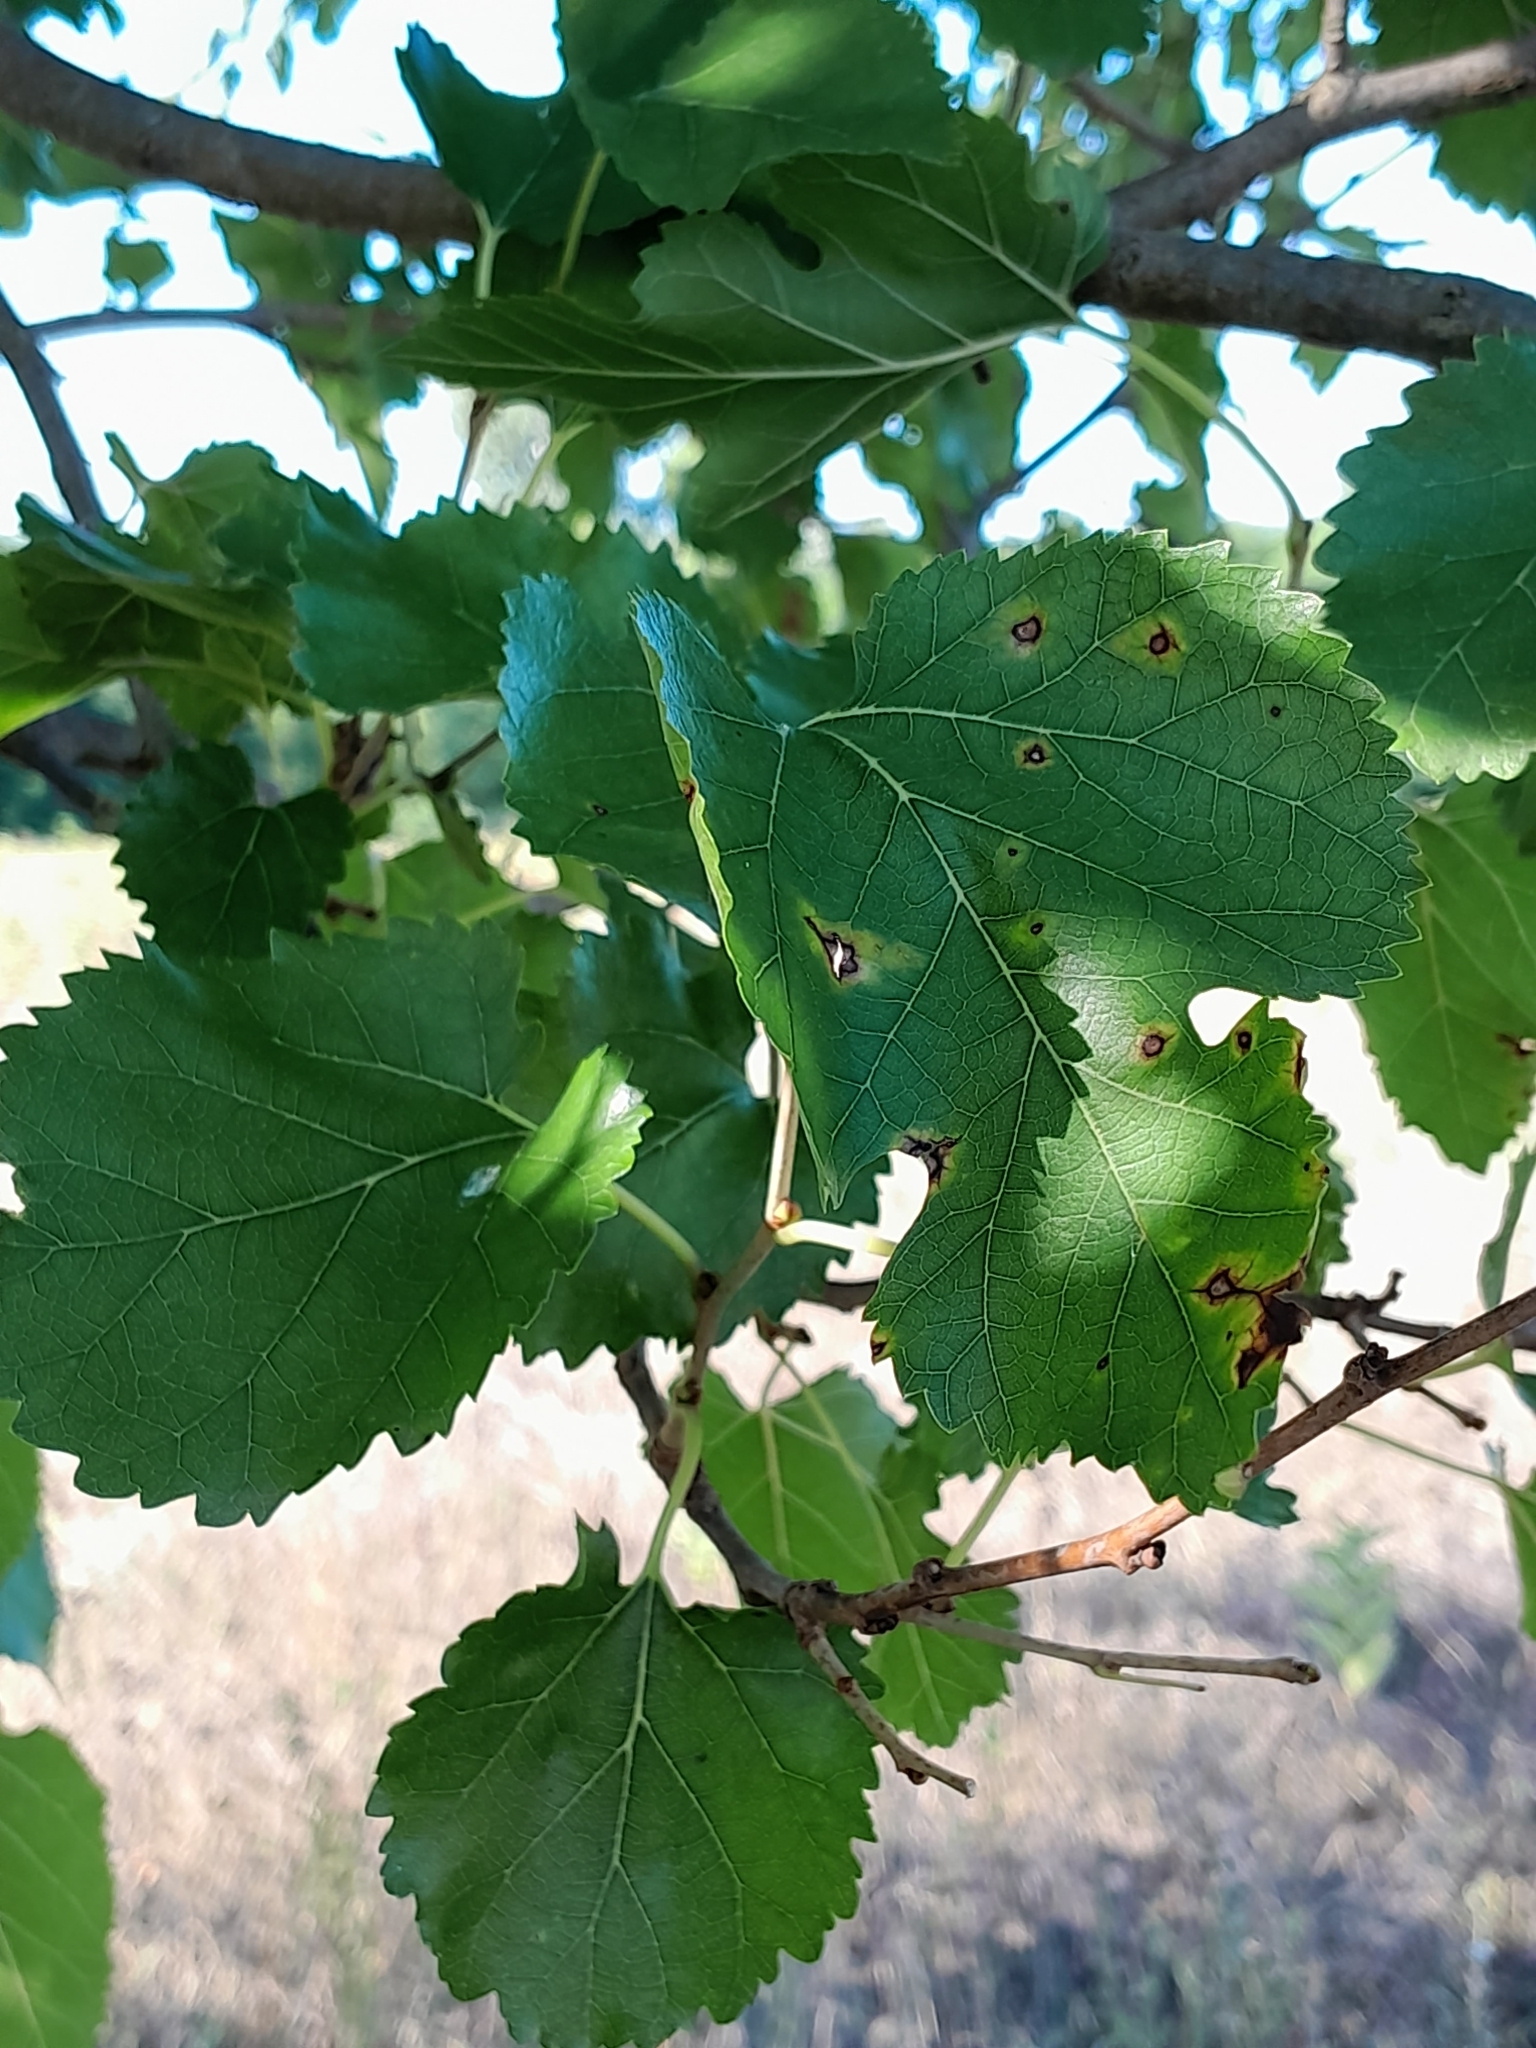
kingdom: Plantae
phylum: Tracheophyta
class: Magnoliopsida
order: Rosales
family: Moraceae
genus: Morus
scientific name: Morus alba
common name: White mulberry
